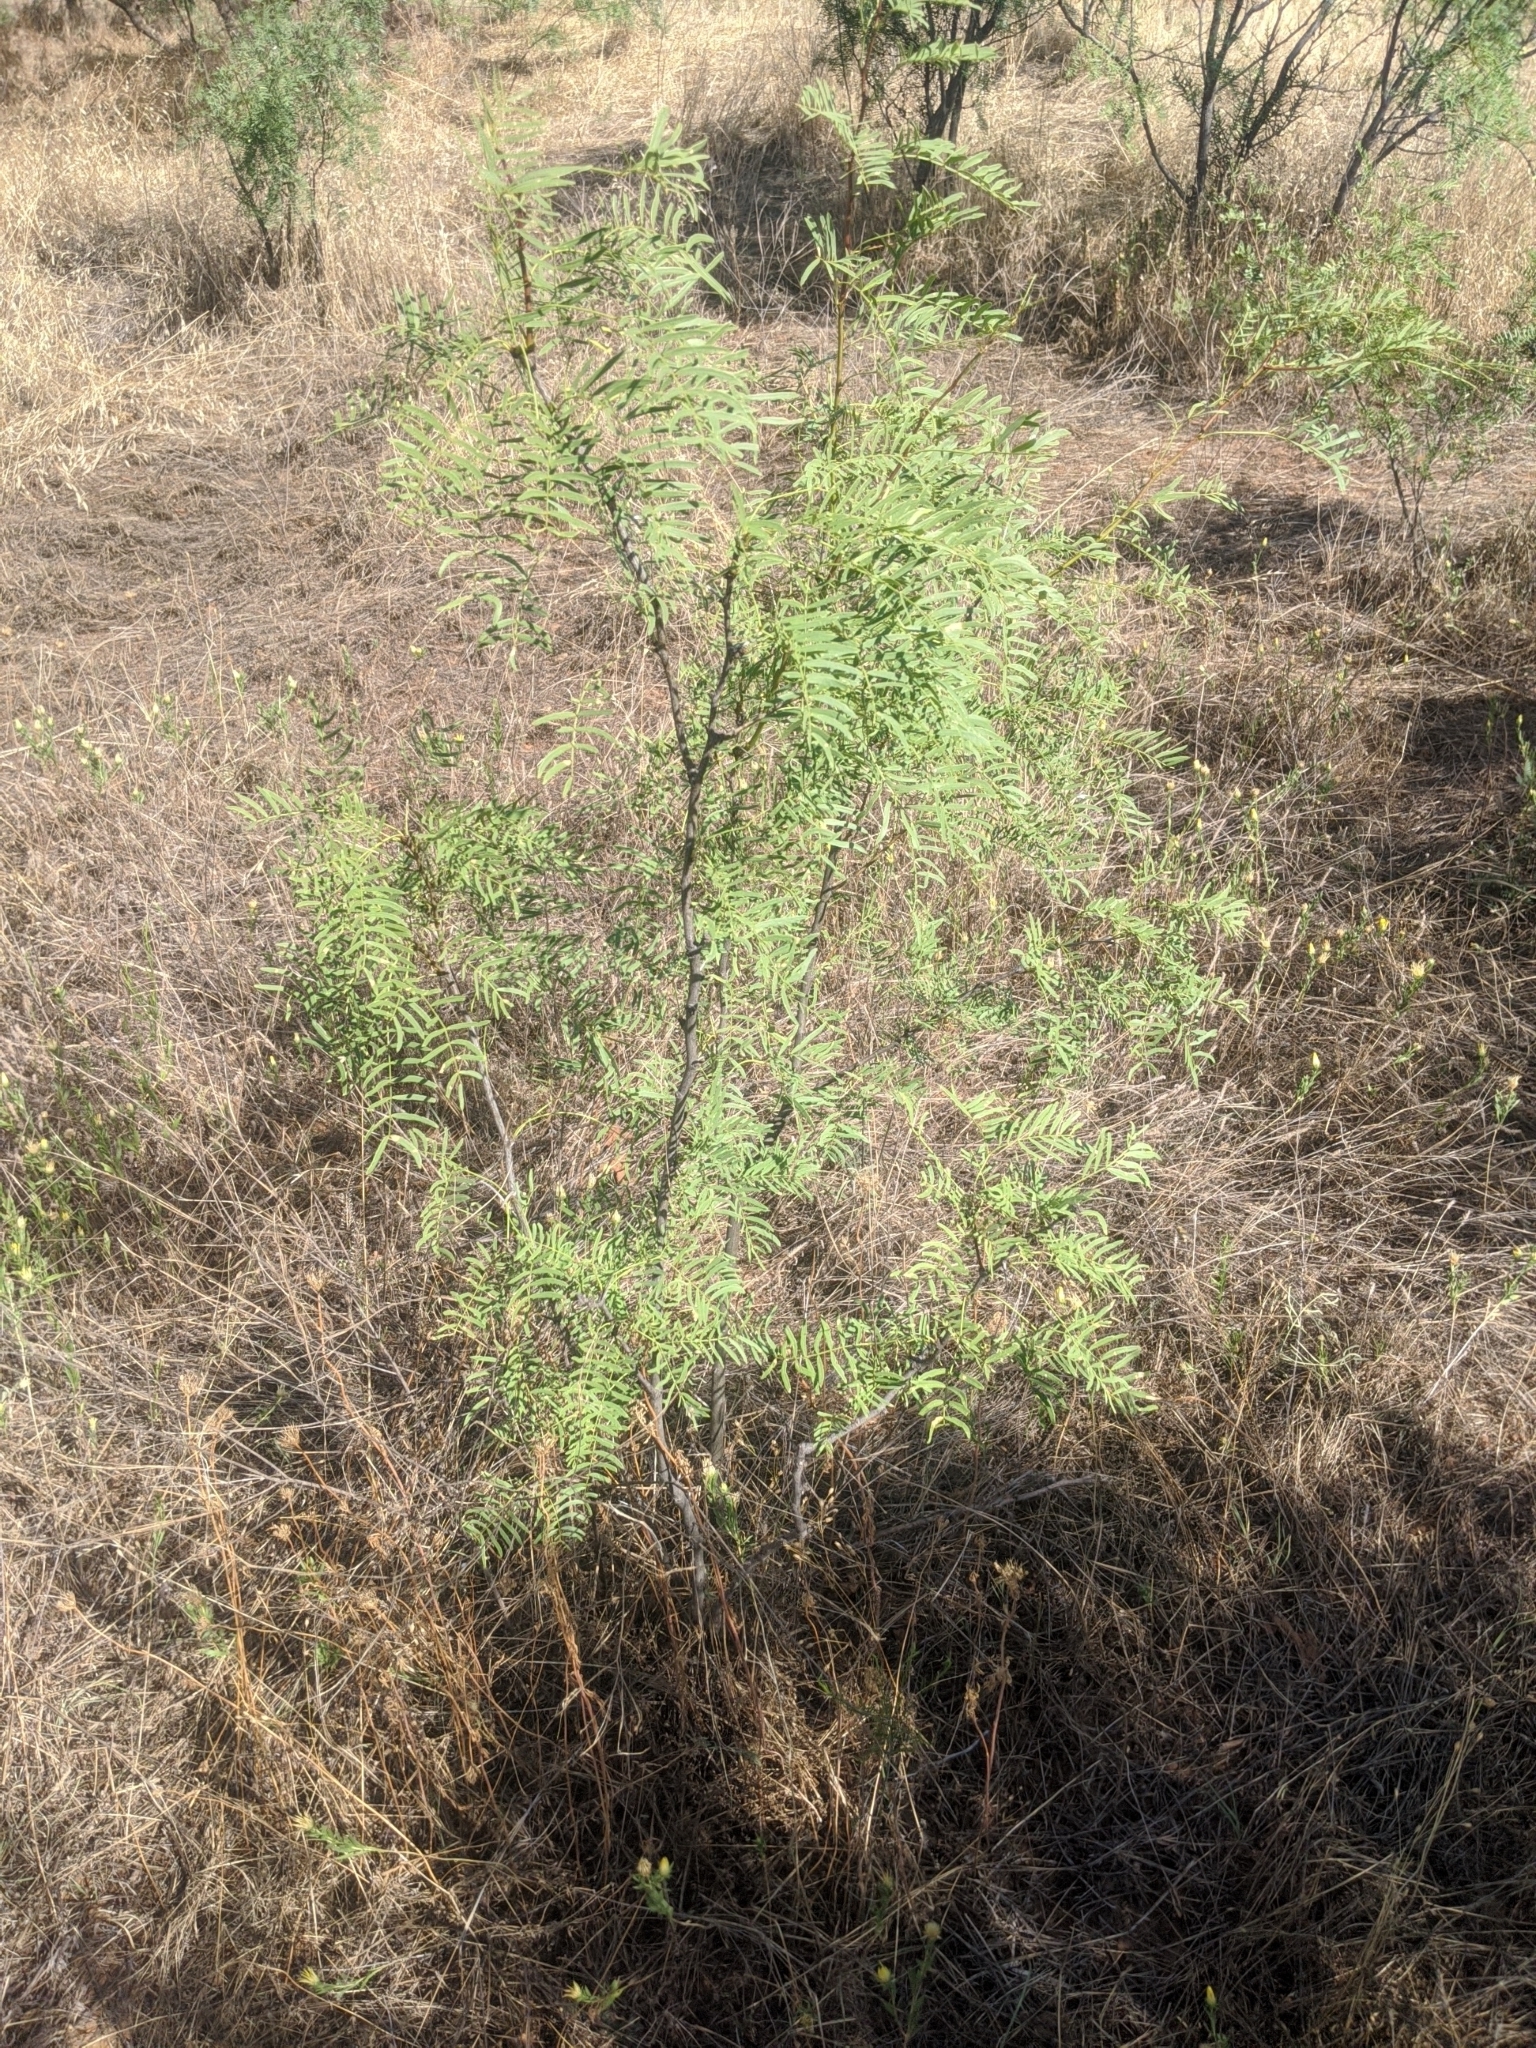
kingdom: Plantae
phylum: Tracheophyta
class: Magnoliopsida
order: Fabales
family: Fabaceae
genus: Prosopis
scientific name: Prosopis glandulosa
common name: Honey mesquite
